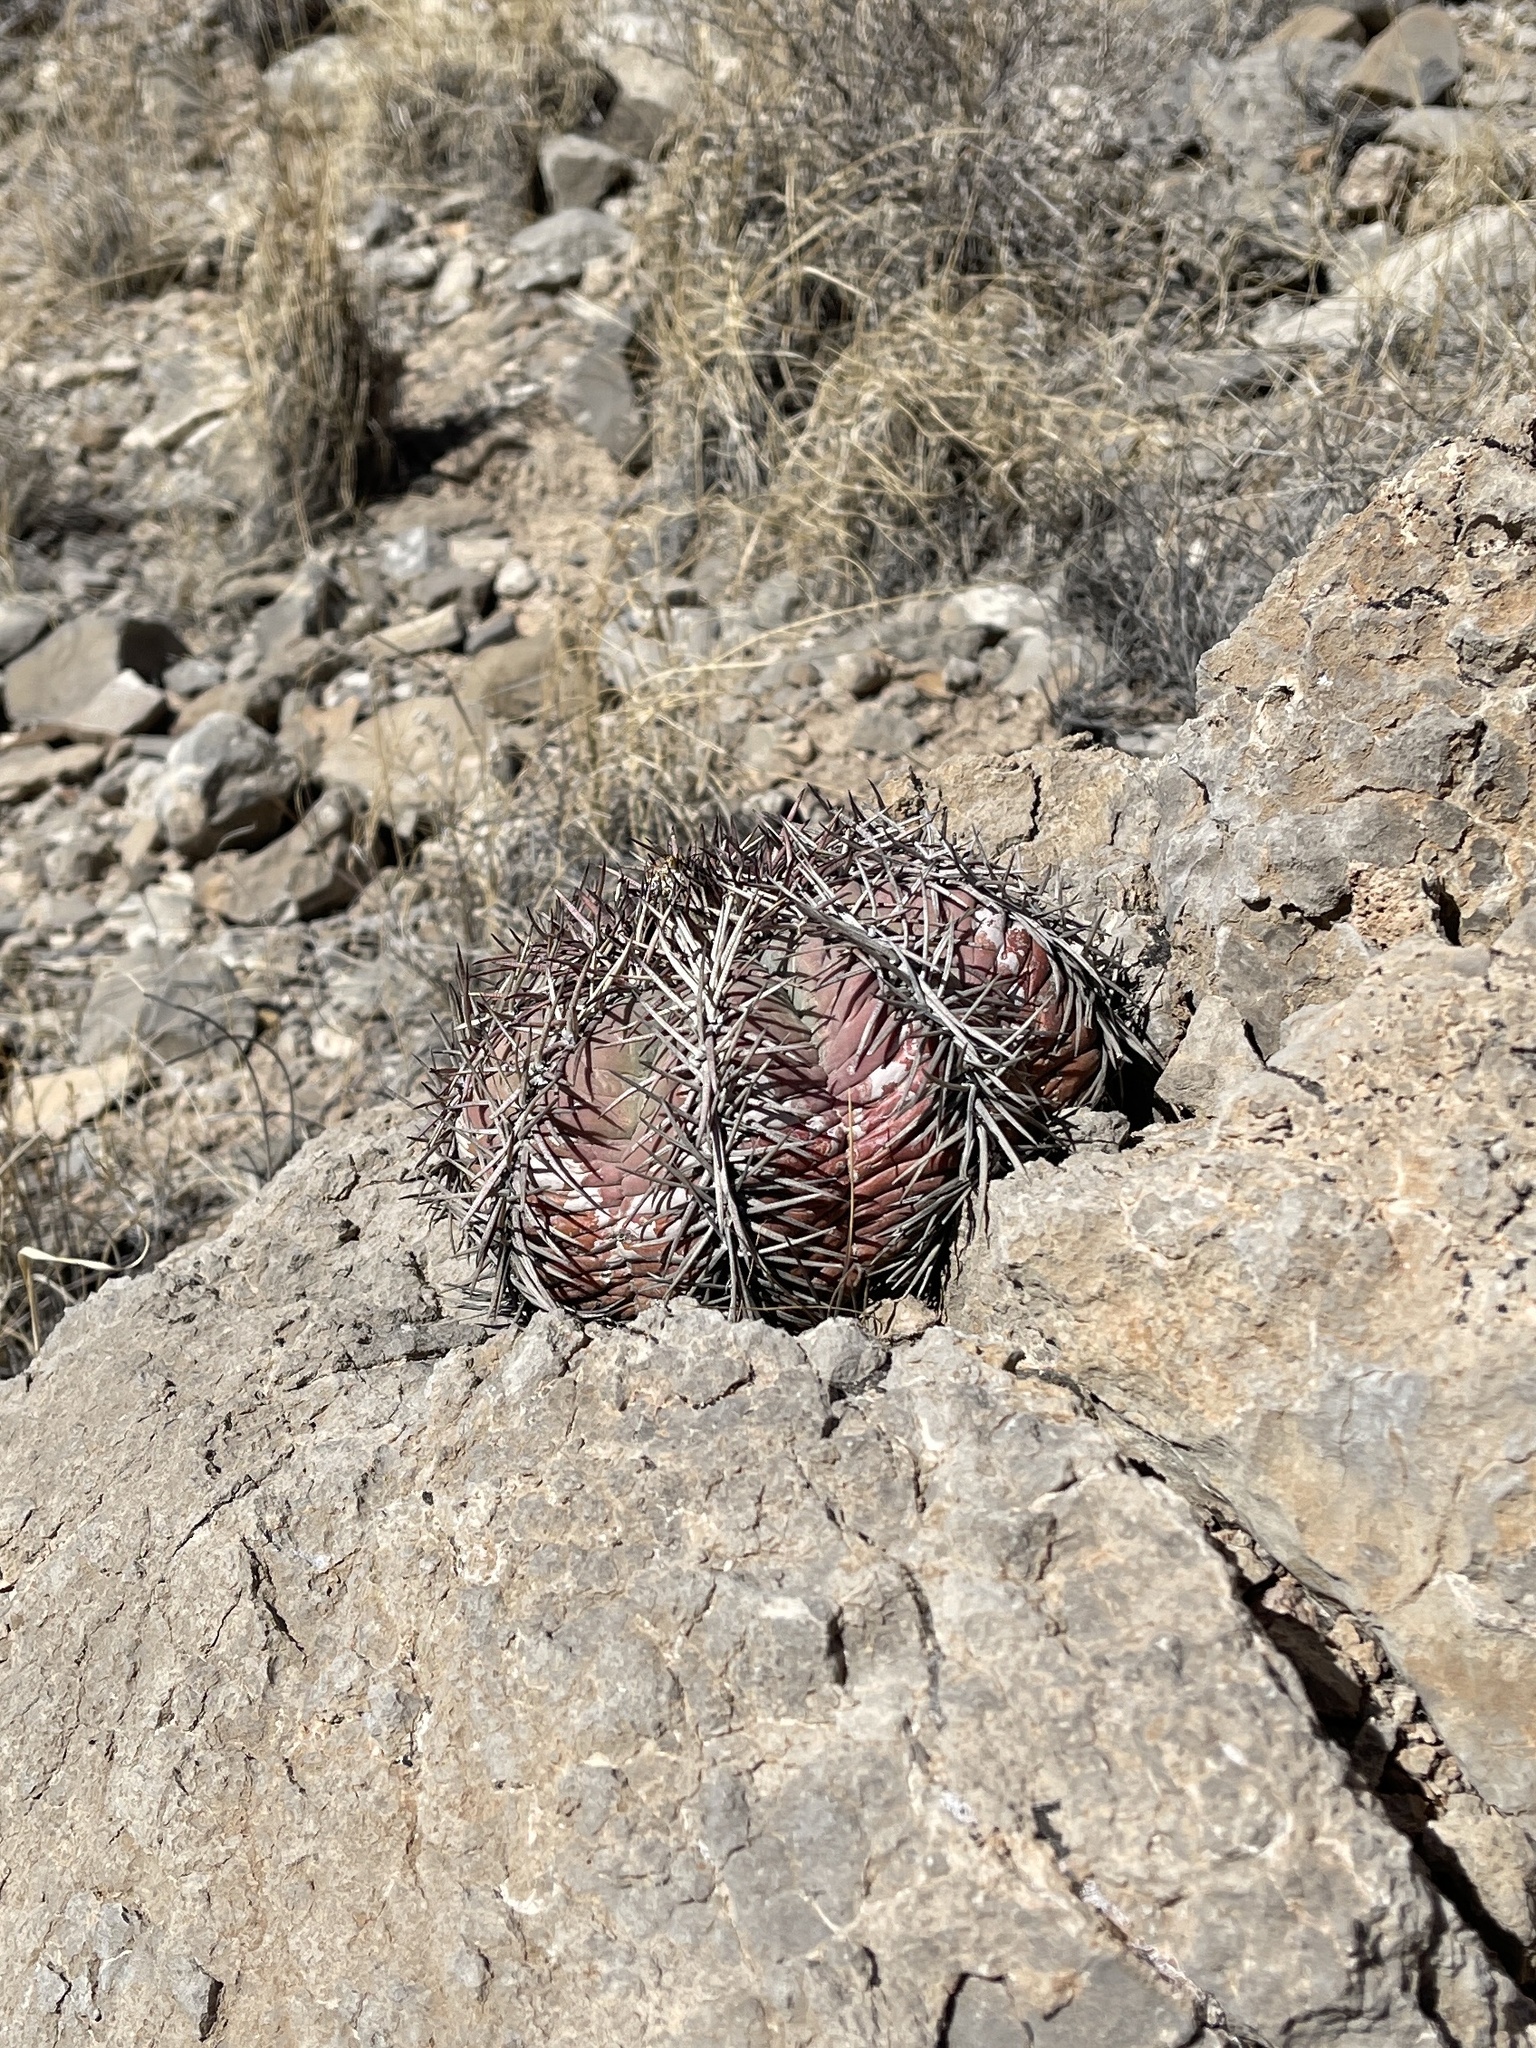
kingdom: Plantae
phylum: Tracheophyta
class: Magnoliopsida
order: Caryophyllales
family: Cactaceae
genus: Echinocactus
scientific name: Echinocactus horizonthalonius
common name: Devilshead
